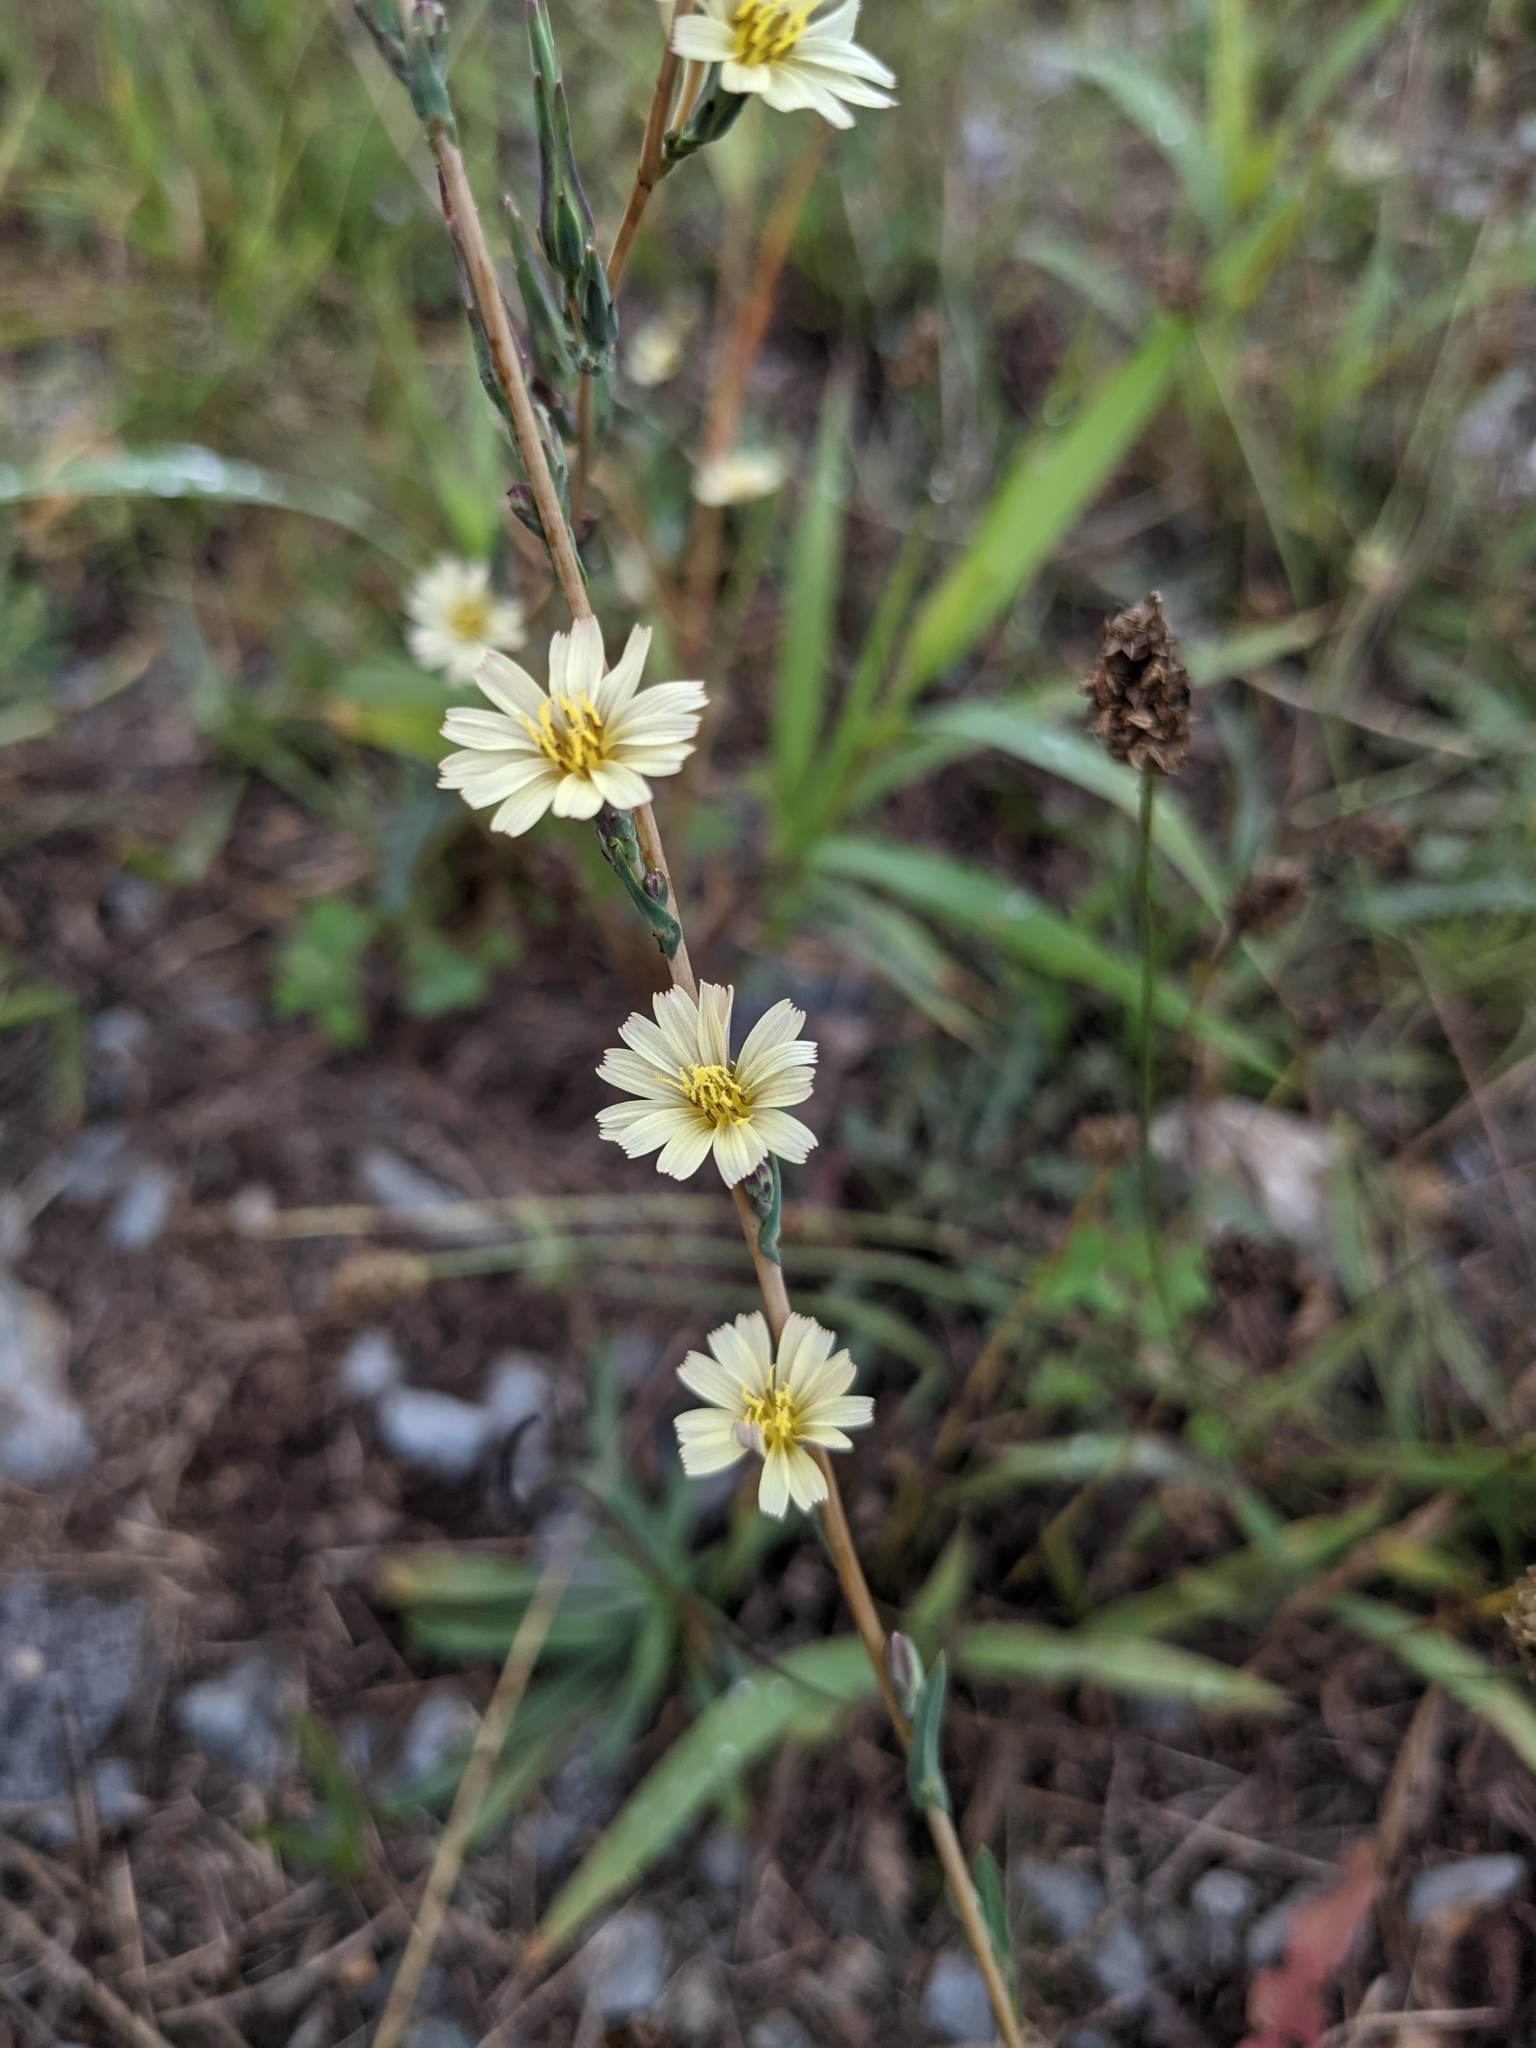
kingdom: Plantae
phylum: Tracheophyta
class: Magnoliopsida
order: Asterales
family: Asteraceae
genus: Lactuca
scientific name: Lactuca saligna
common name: Wild lettuce
